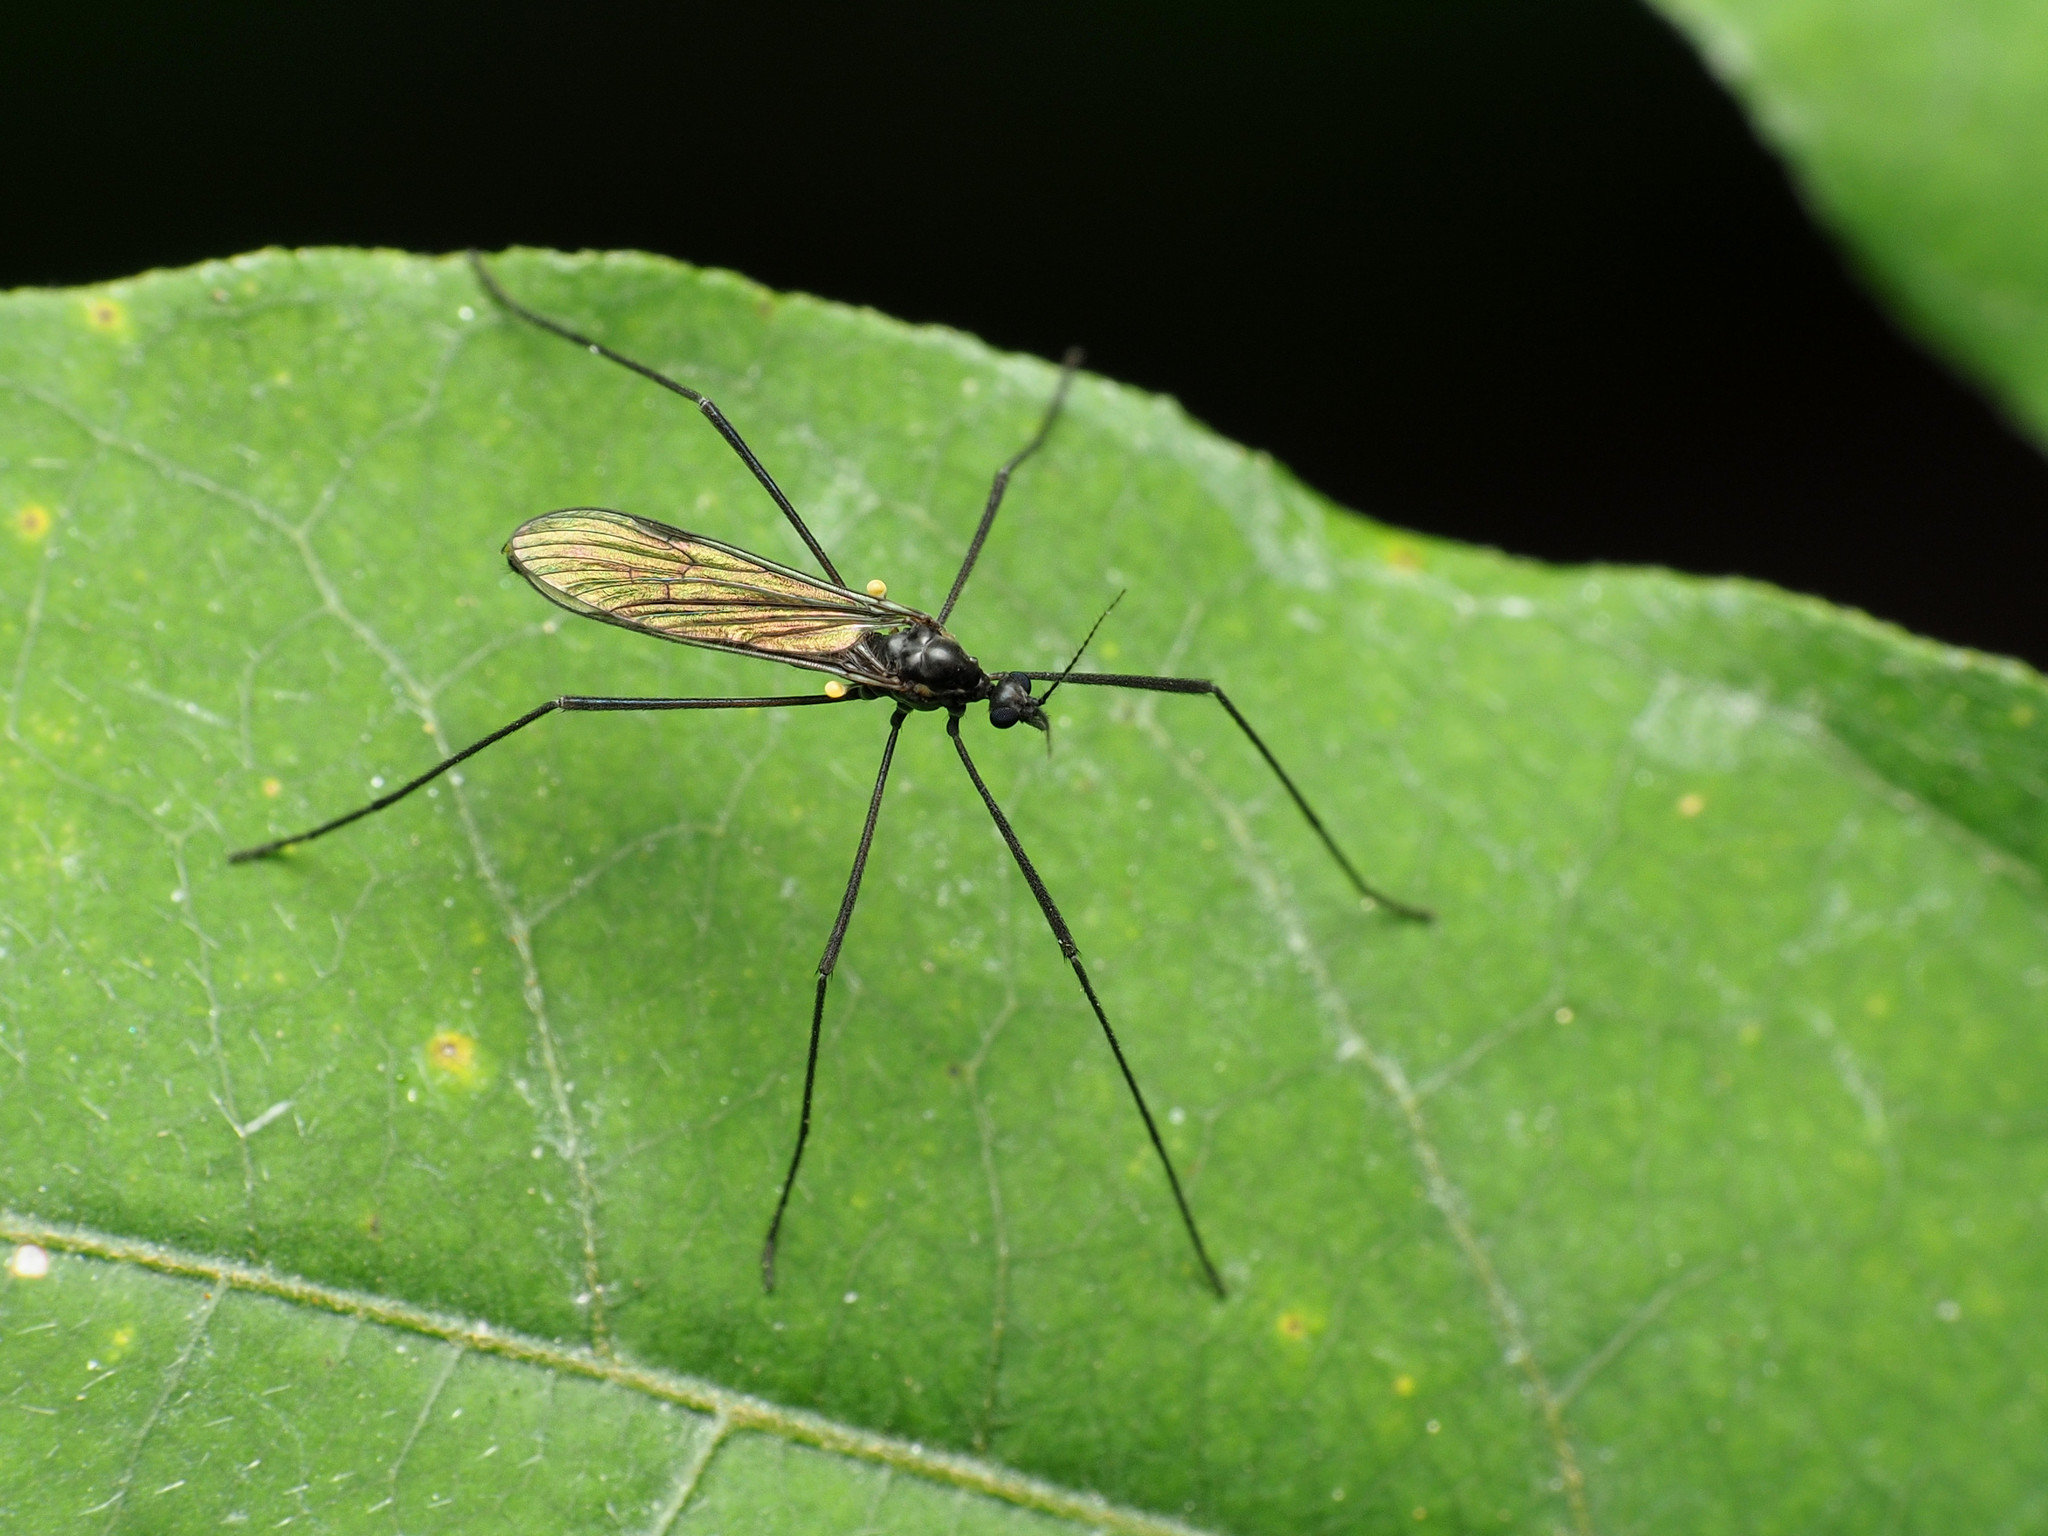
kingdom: Animalia
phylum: Arthropoda
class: Insecta
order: Diptera
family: Limoniidae
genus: Gnophomyia
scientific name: Gnophomyia tristissima
